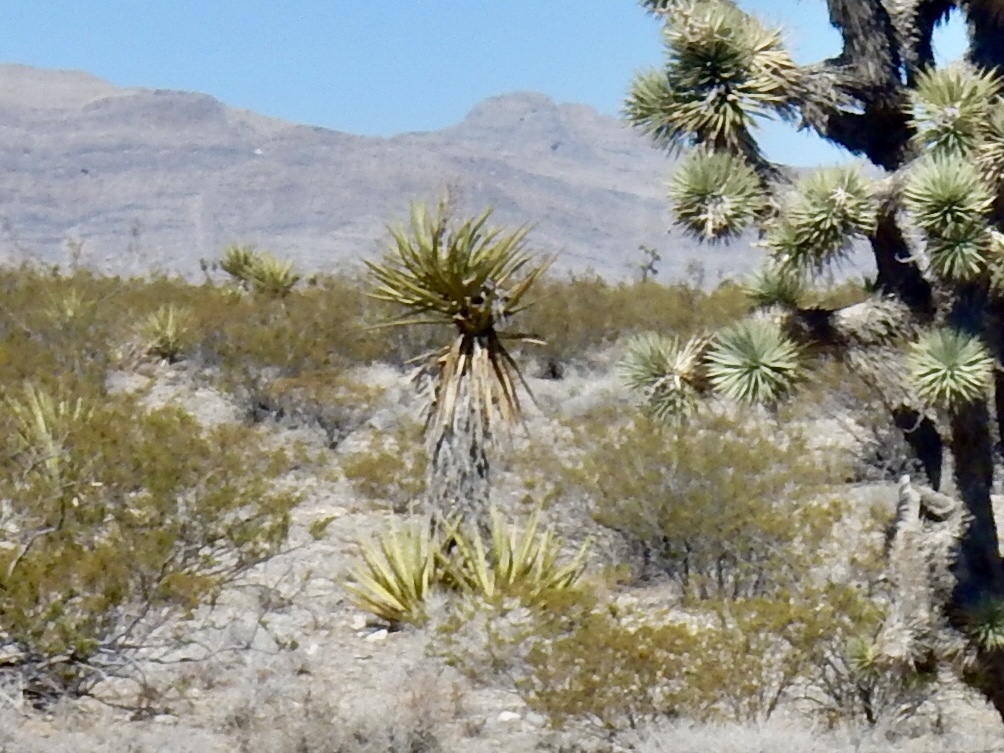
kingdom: Plantae
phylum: Tracheophyta
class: Liliopsida
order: Asparagales
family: Asparagaceae
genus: Yucca
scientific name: Yucca schidigera
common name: Mojave yucca
